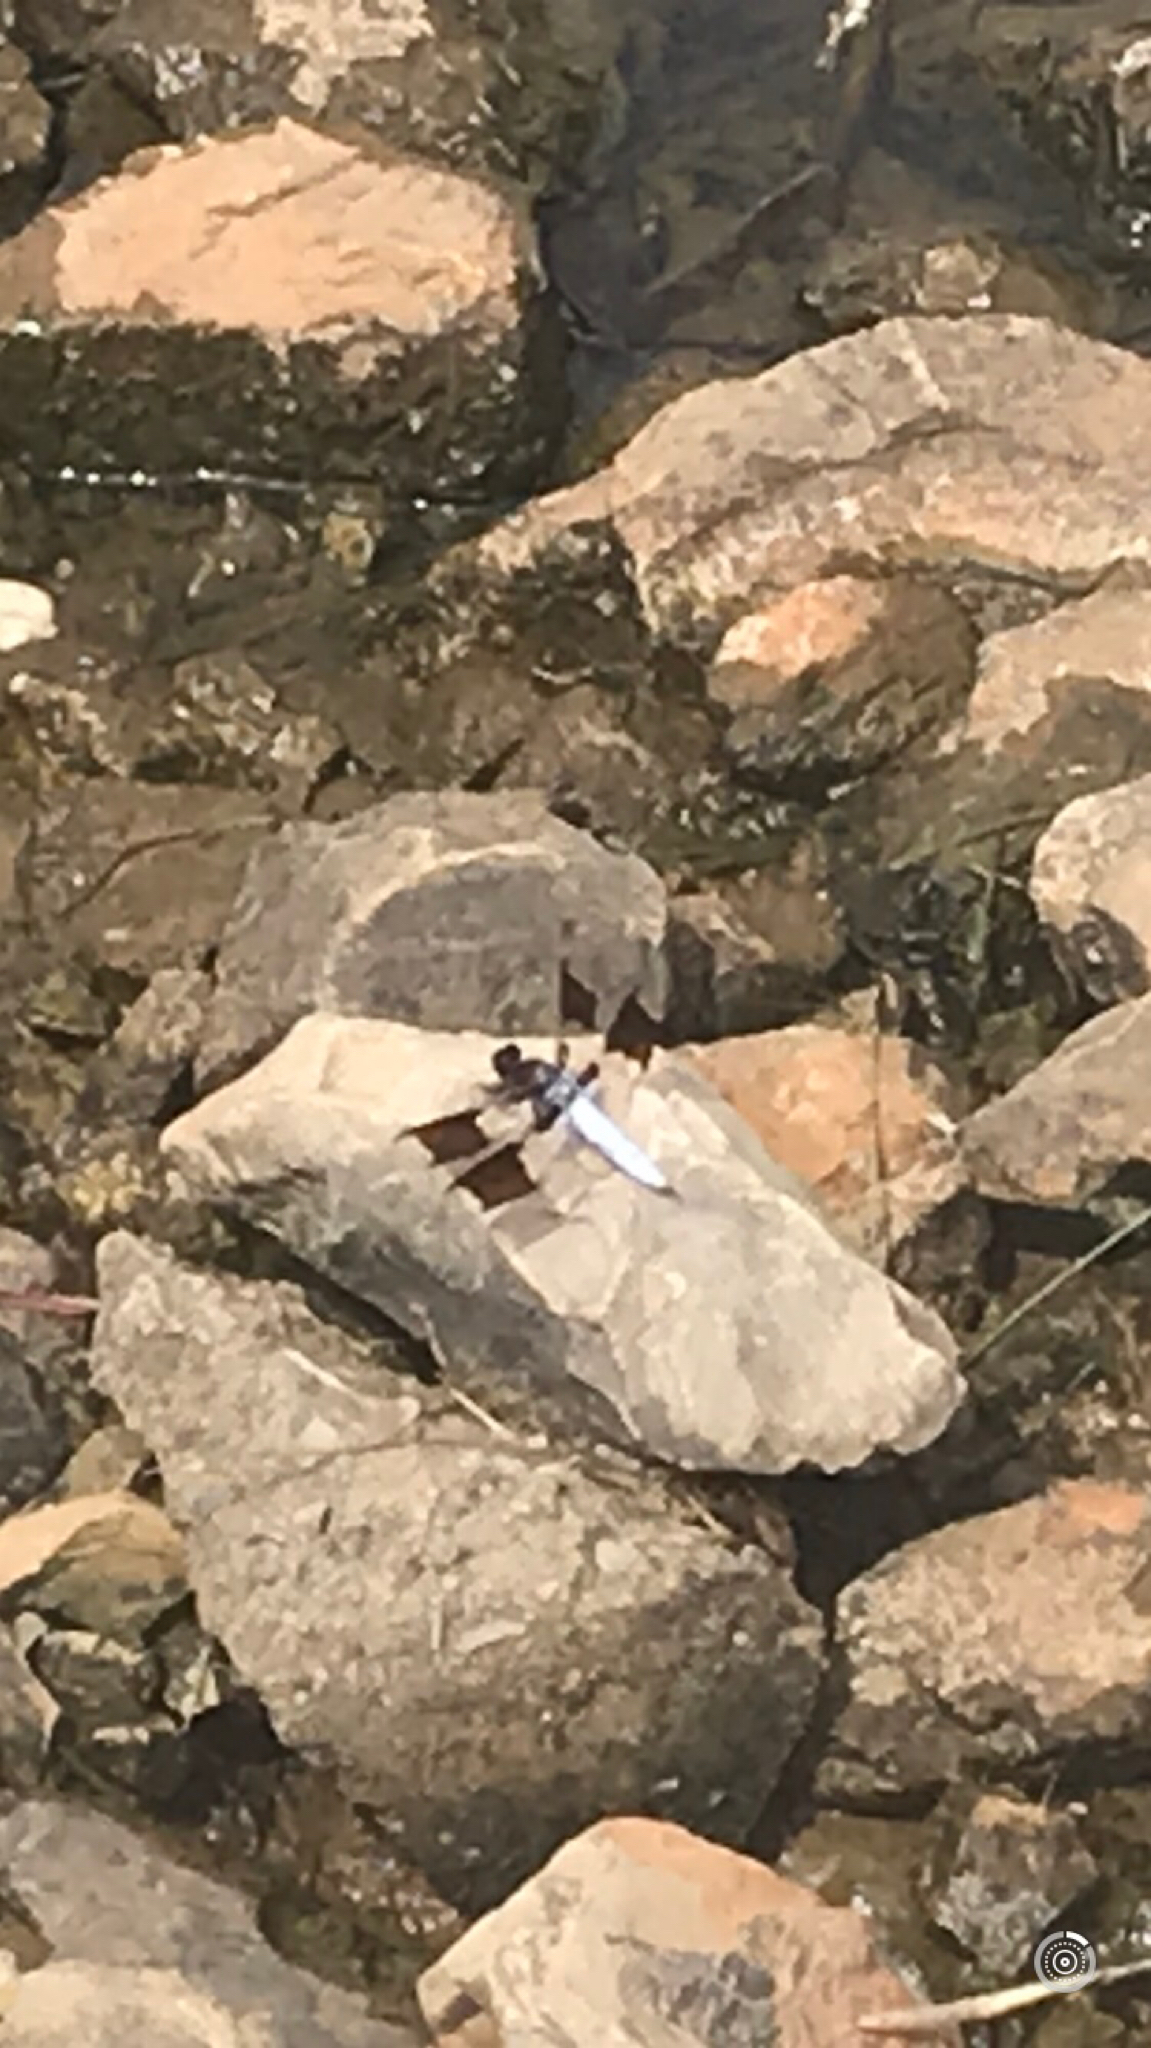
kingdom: Animalia
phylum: Arthropoda
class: Insecta
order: Odonata
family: Libellulidae
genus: Plathemis
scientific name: Plathemis lydia
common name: Common whitetail
